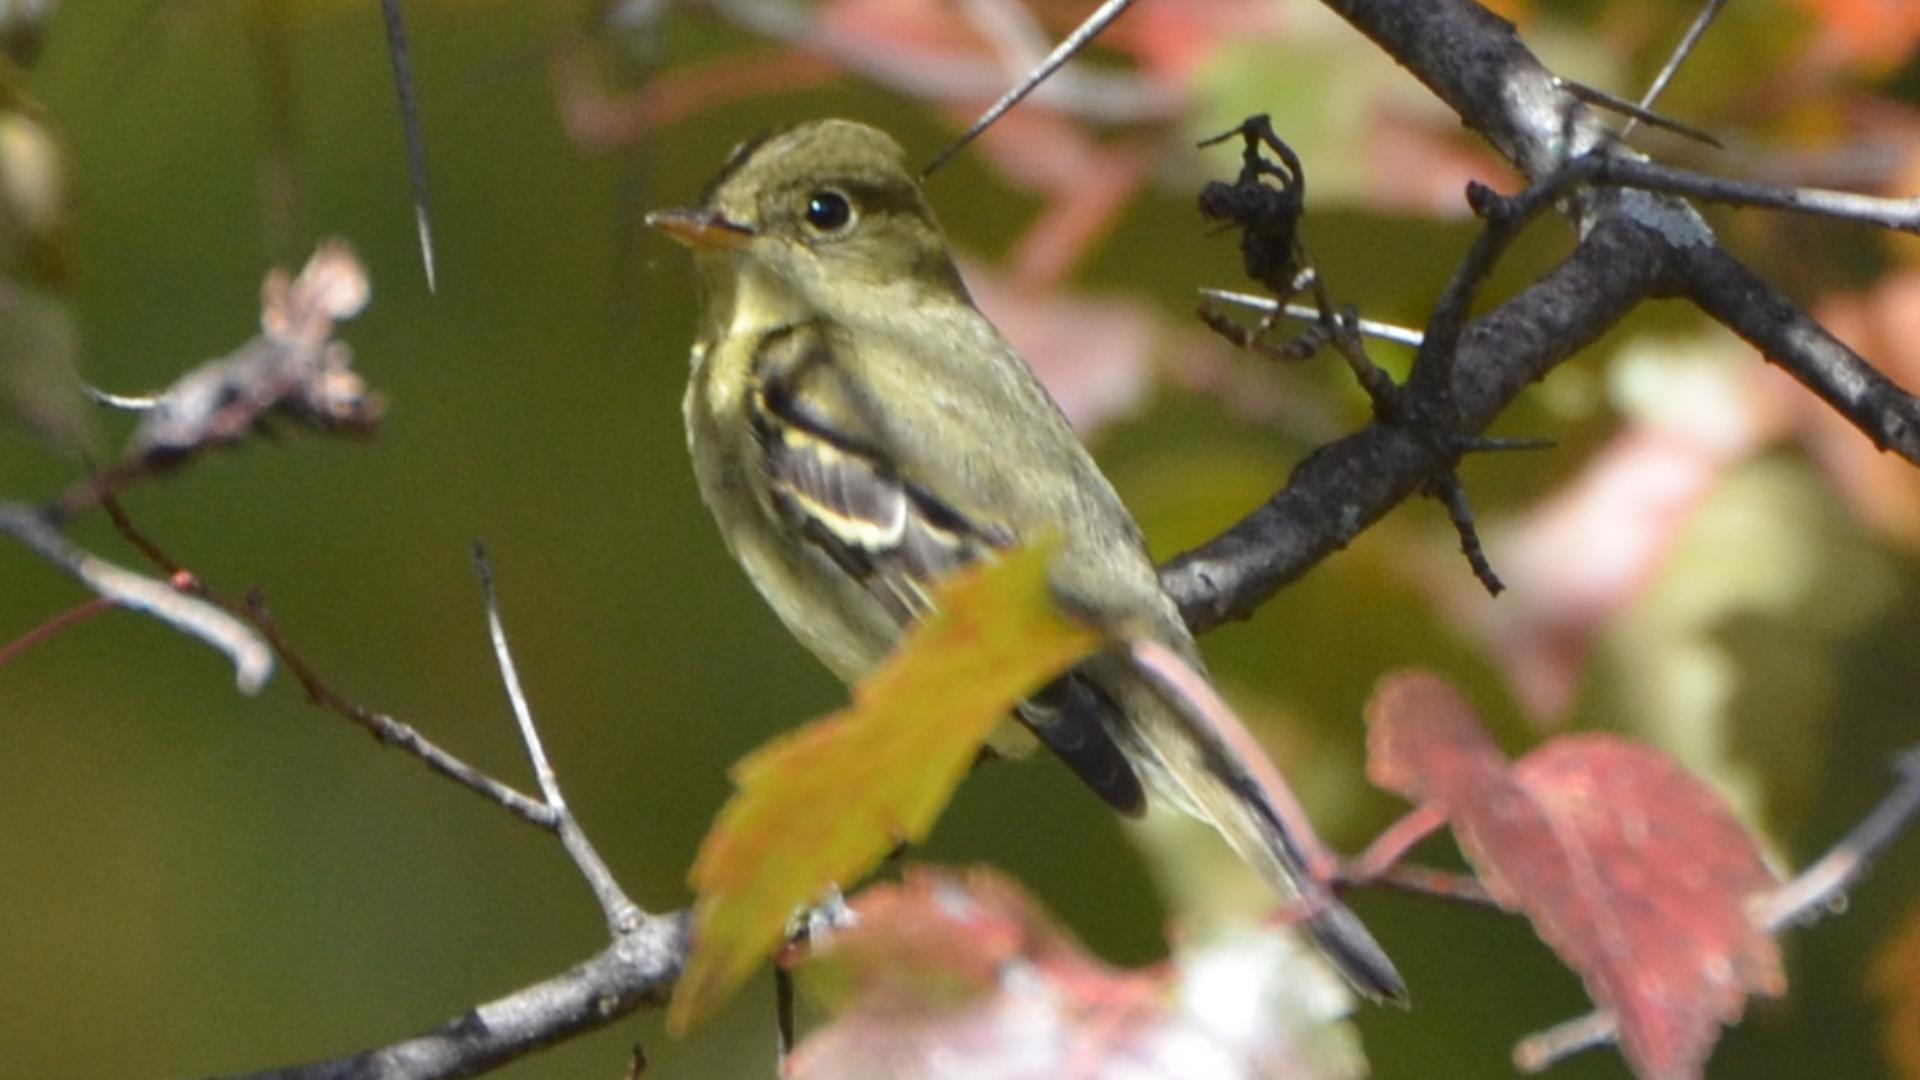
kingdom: Animalia
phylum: Chordata
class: Aves
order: Passeriformes
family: Tyrannidae
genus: Empidonax
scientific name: Empidonax flaviventris
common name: Yellow-bellied flycatcher
